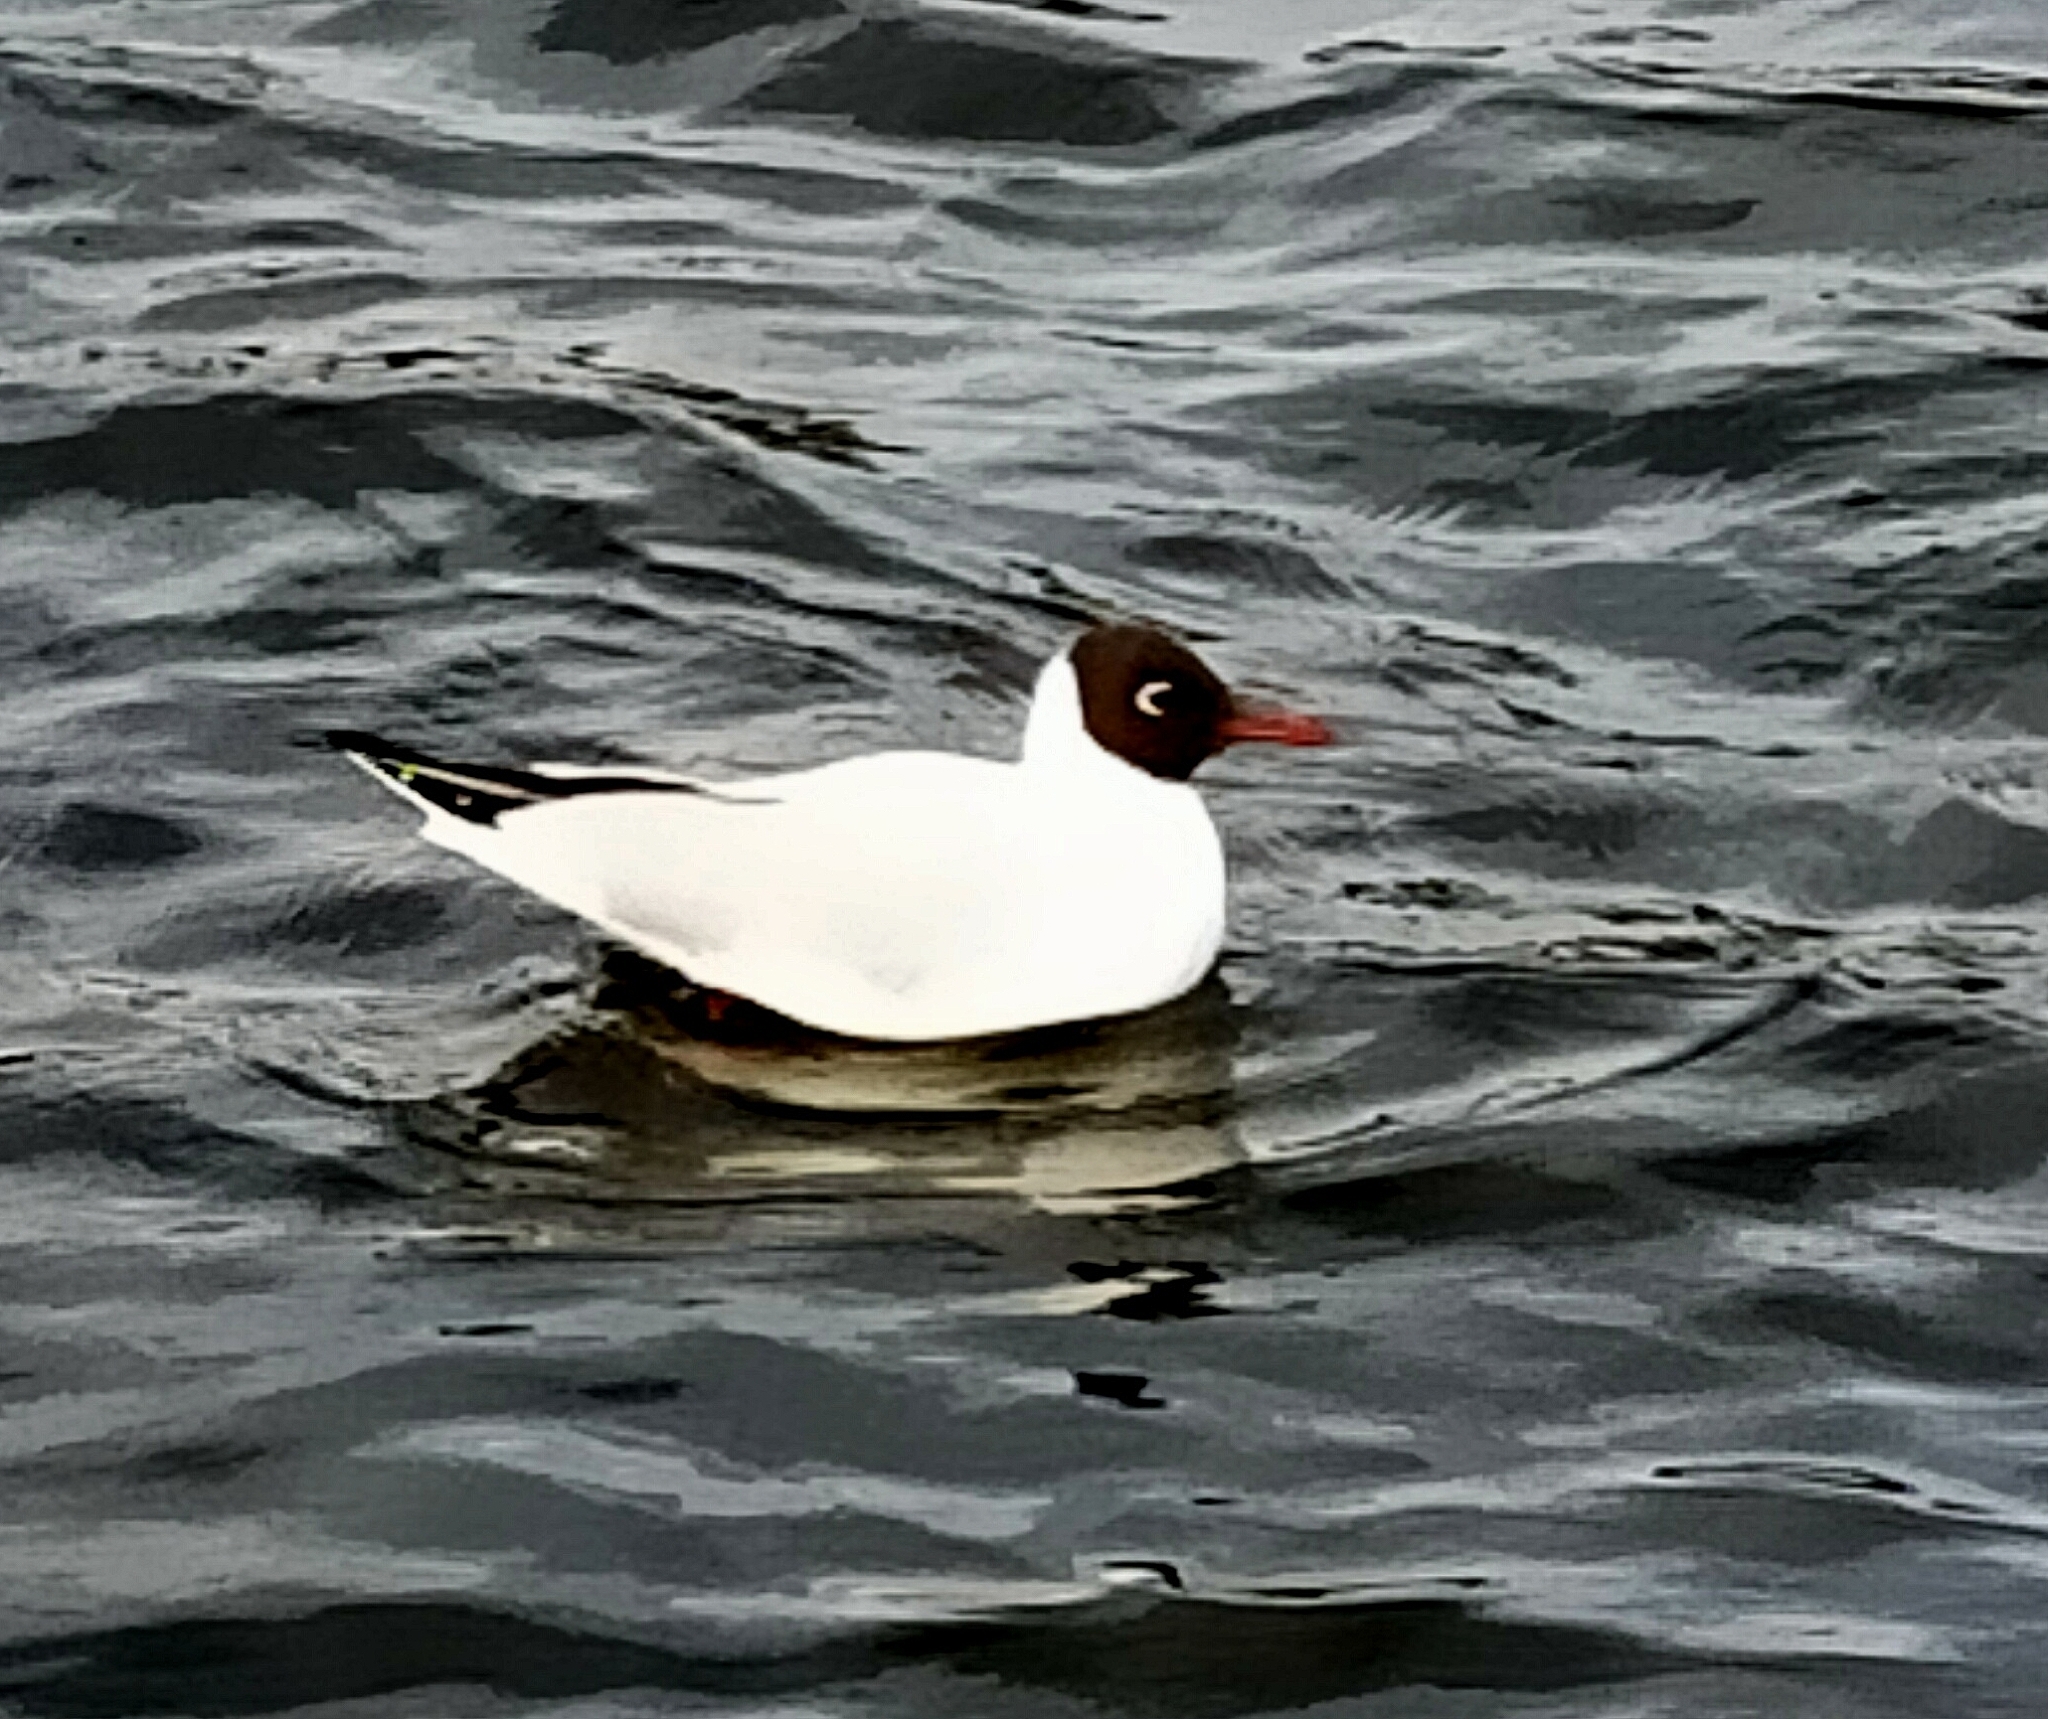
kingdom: Animalia
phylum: Chordata
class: Aves
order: Charadriiformes
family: Laridae
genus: Chroicocephalus
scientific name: Chroicocephalus ridibundus
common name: Black-headed gull
